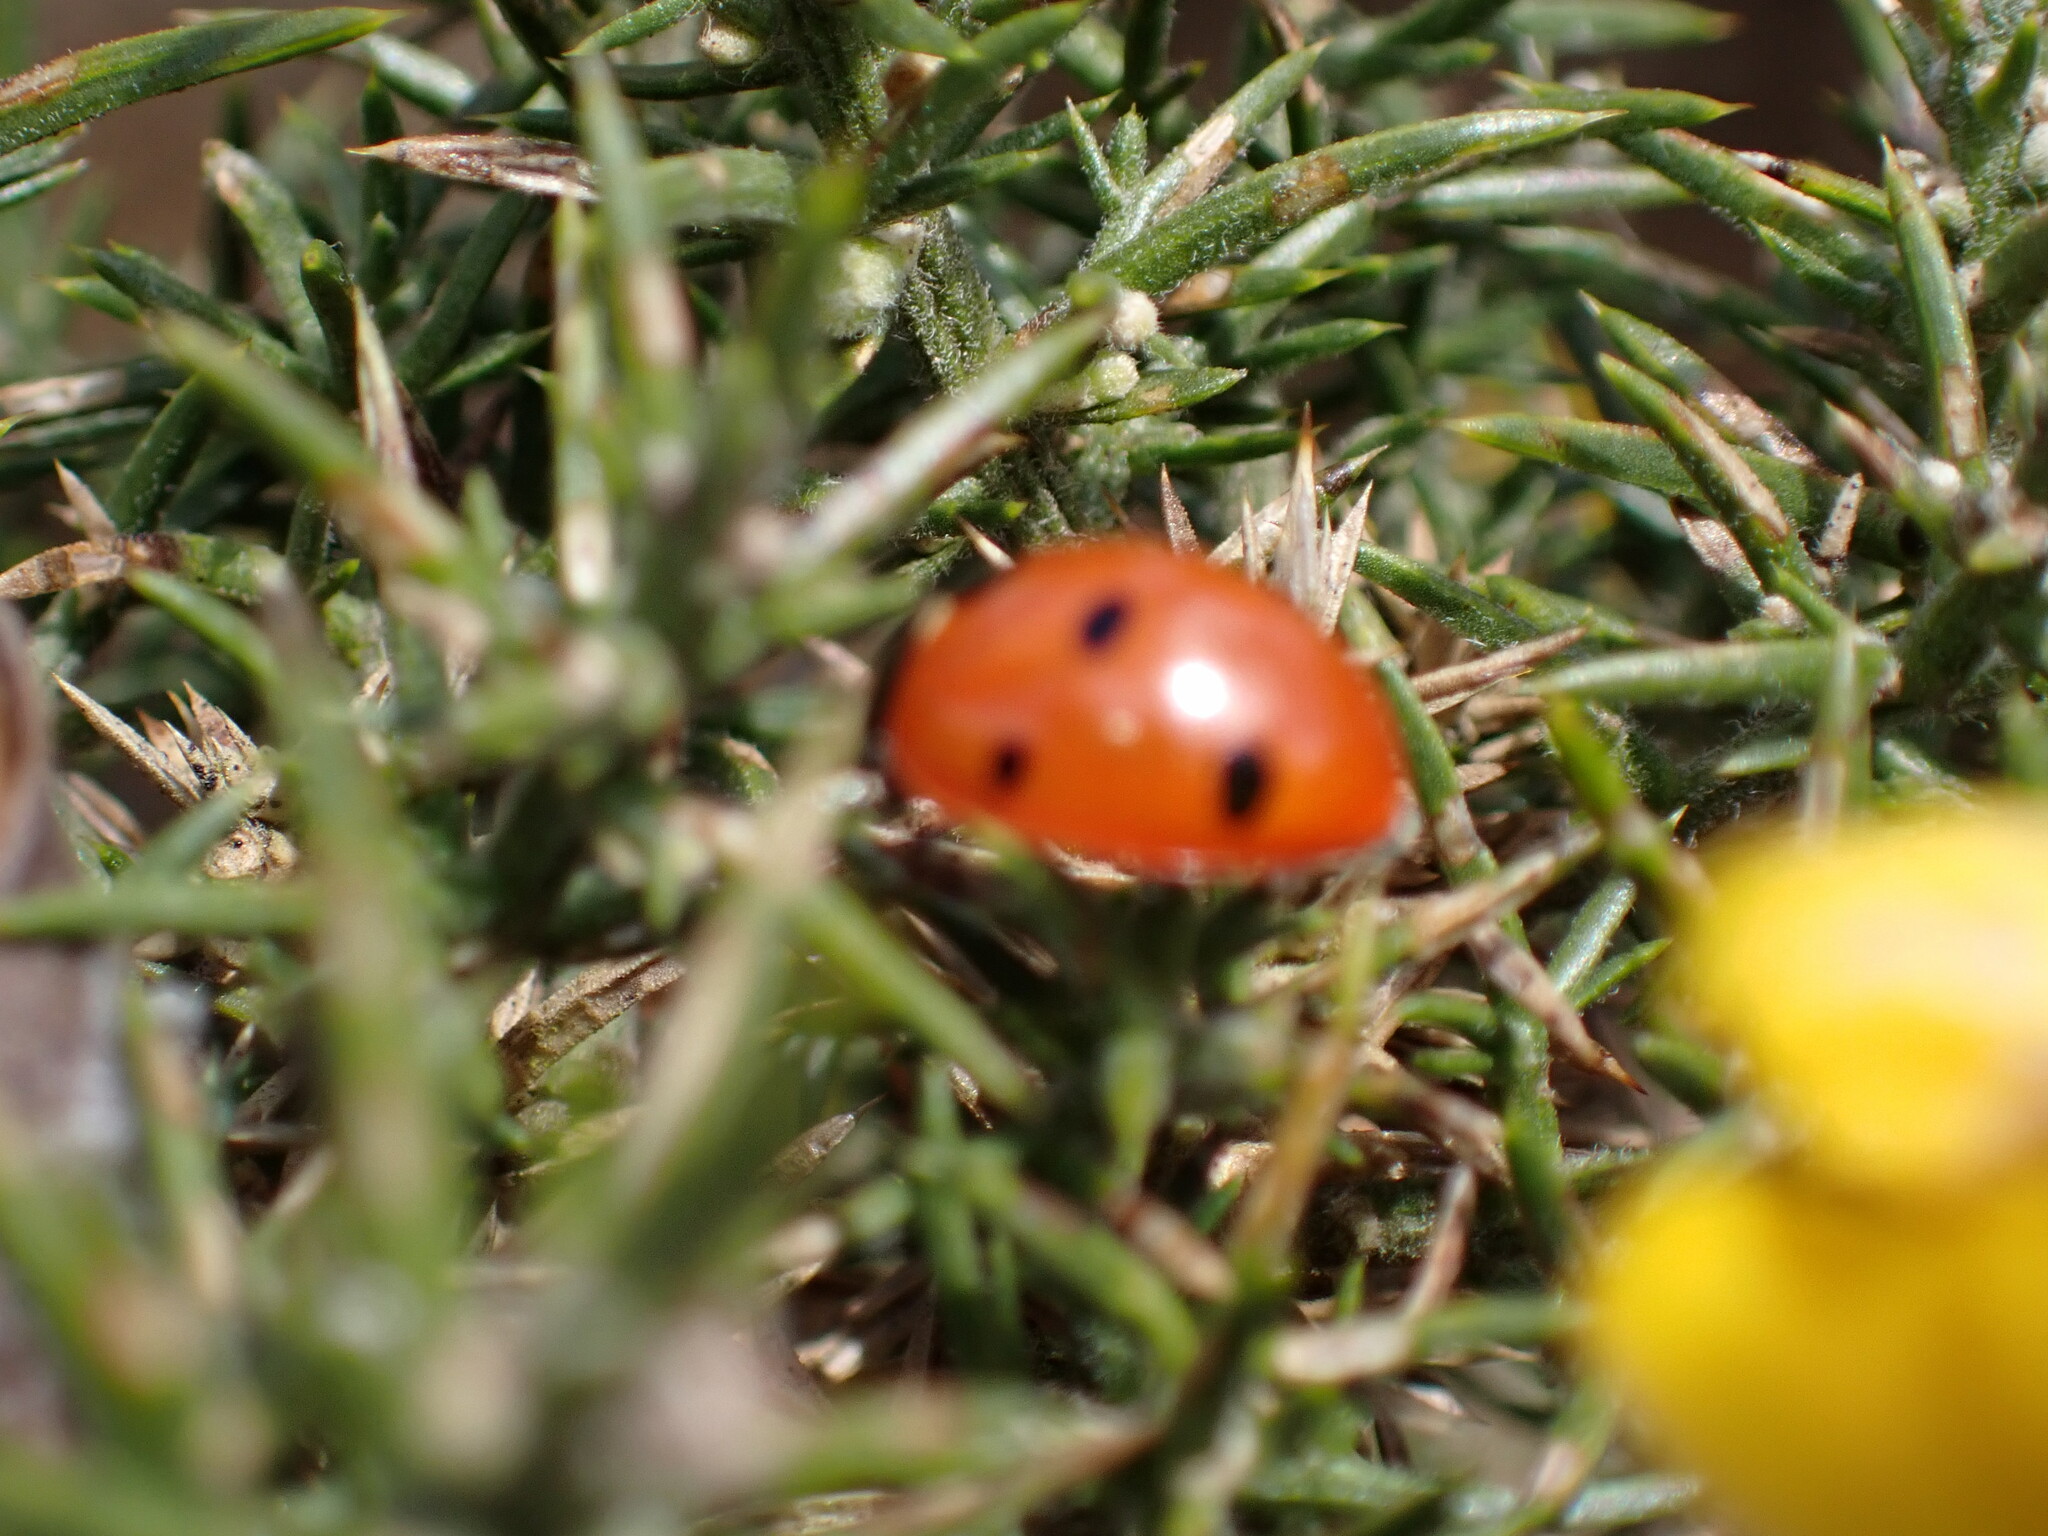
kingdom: Animalia
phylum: Arthropoda
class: Insecta
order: Coleoptera
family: Coccinellidae
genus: Coccinella
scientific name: Coccinella septempunctata
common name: Sevenspotted lady beetle
